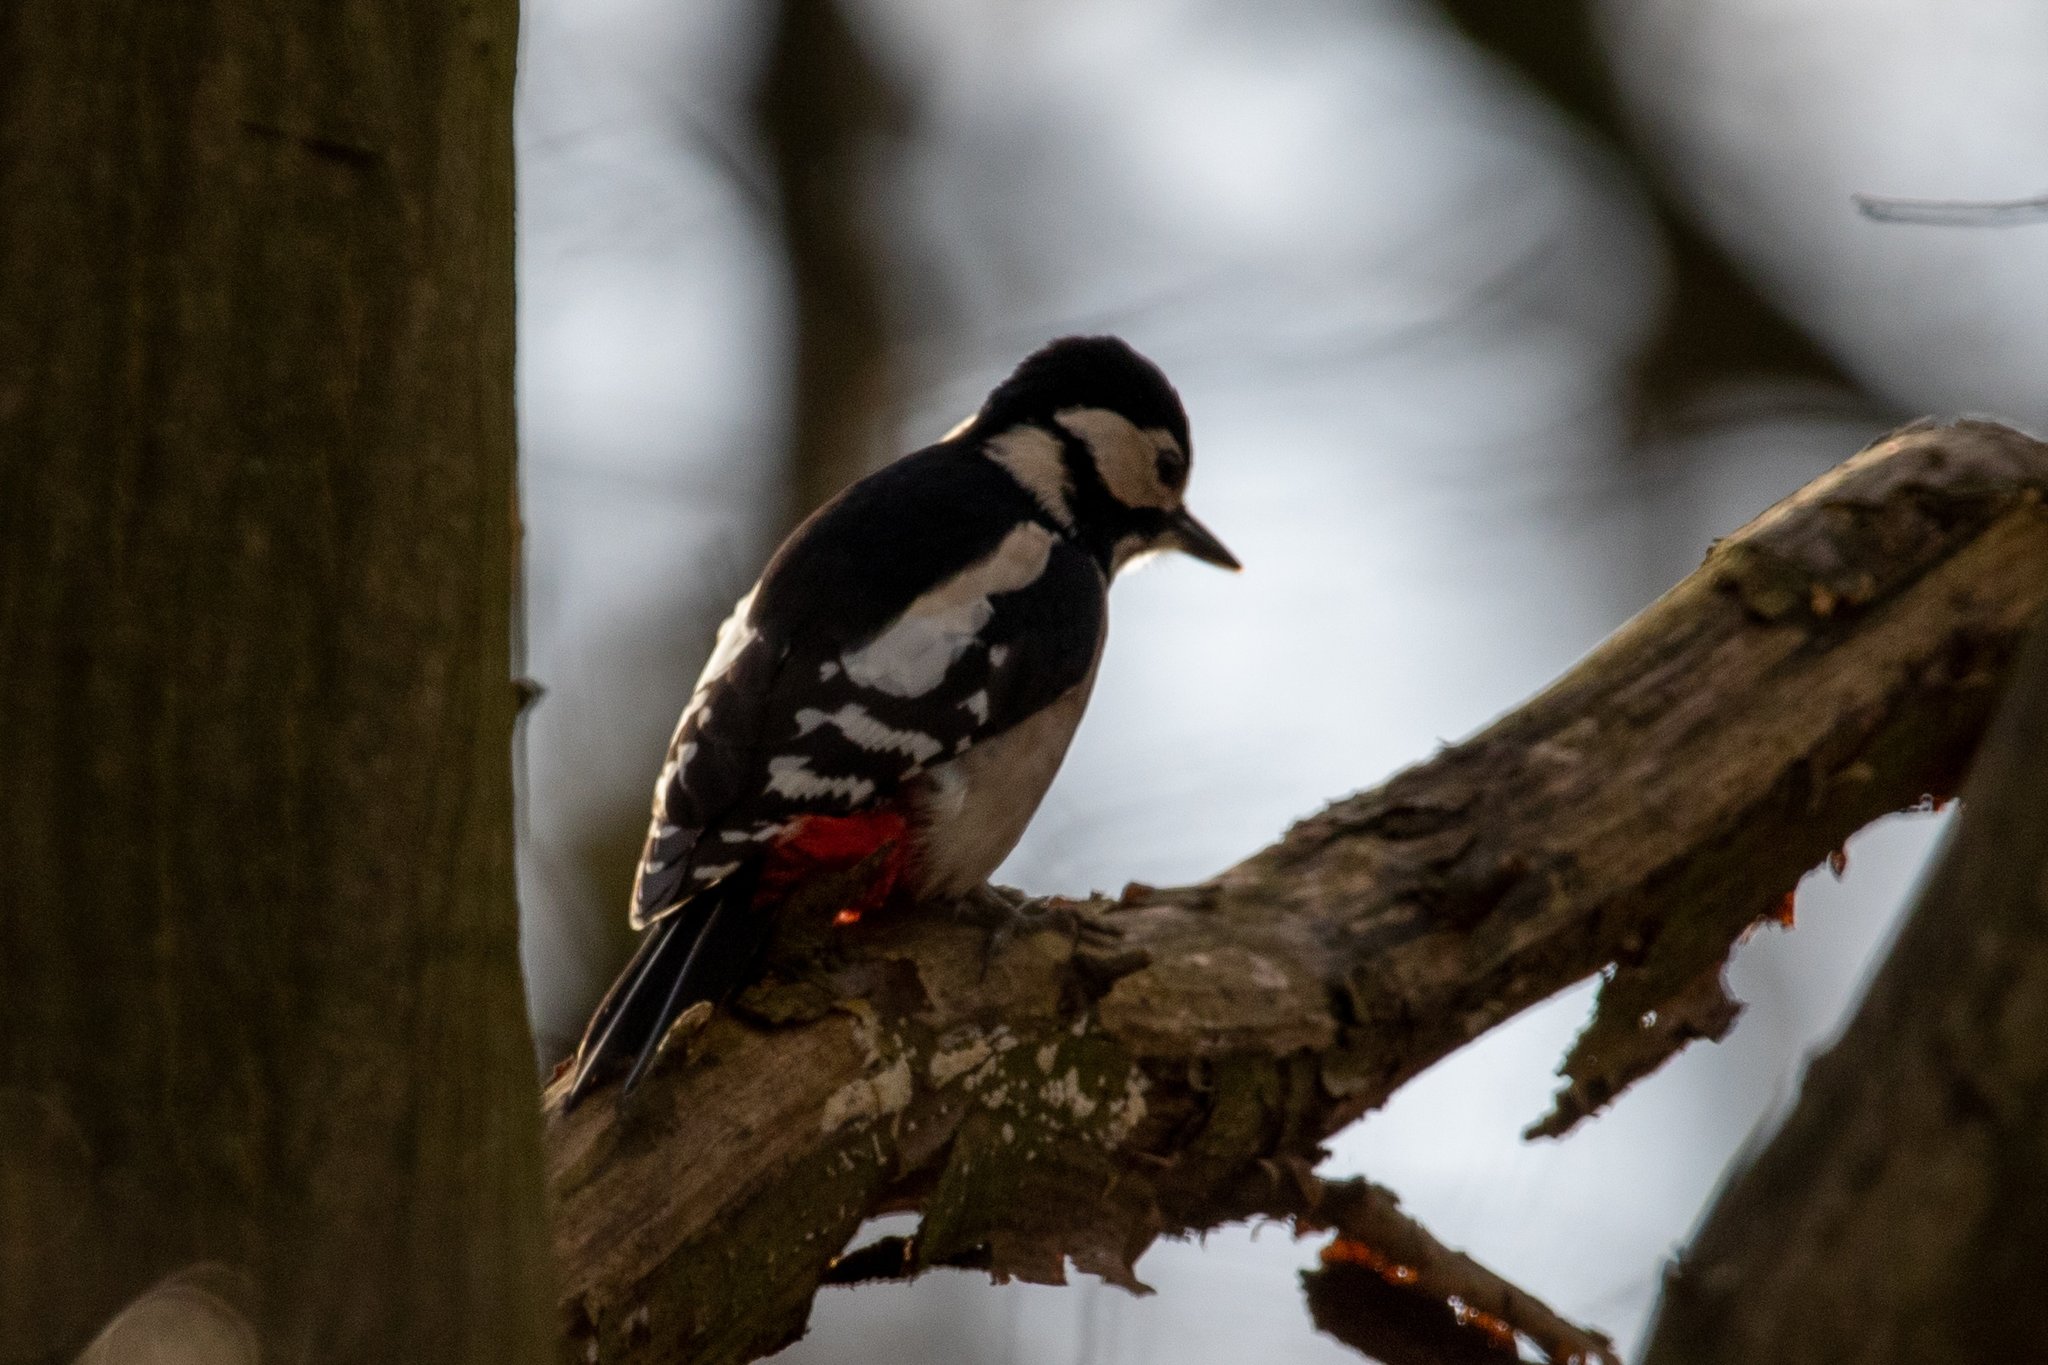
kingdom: Animalia
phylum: Chordata
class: Aves
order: Piciformes
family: Picidae
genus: Dendrocopos
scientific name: Dendrocopos major
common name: Great spotted woodpecker
